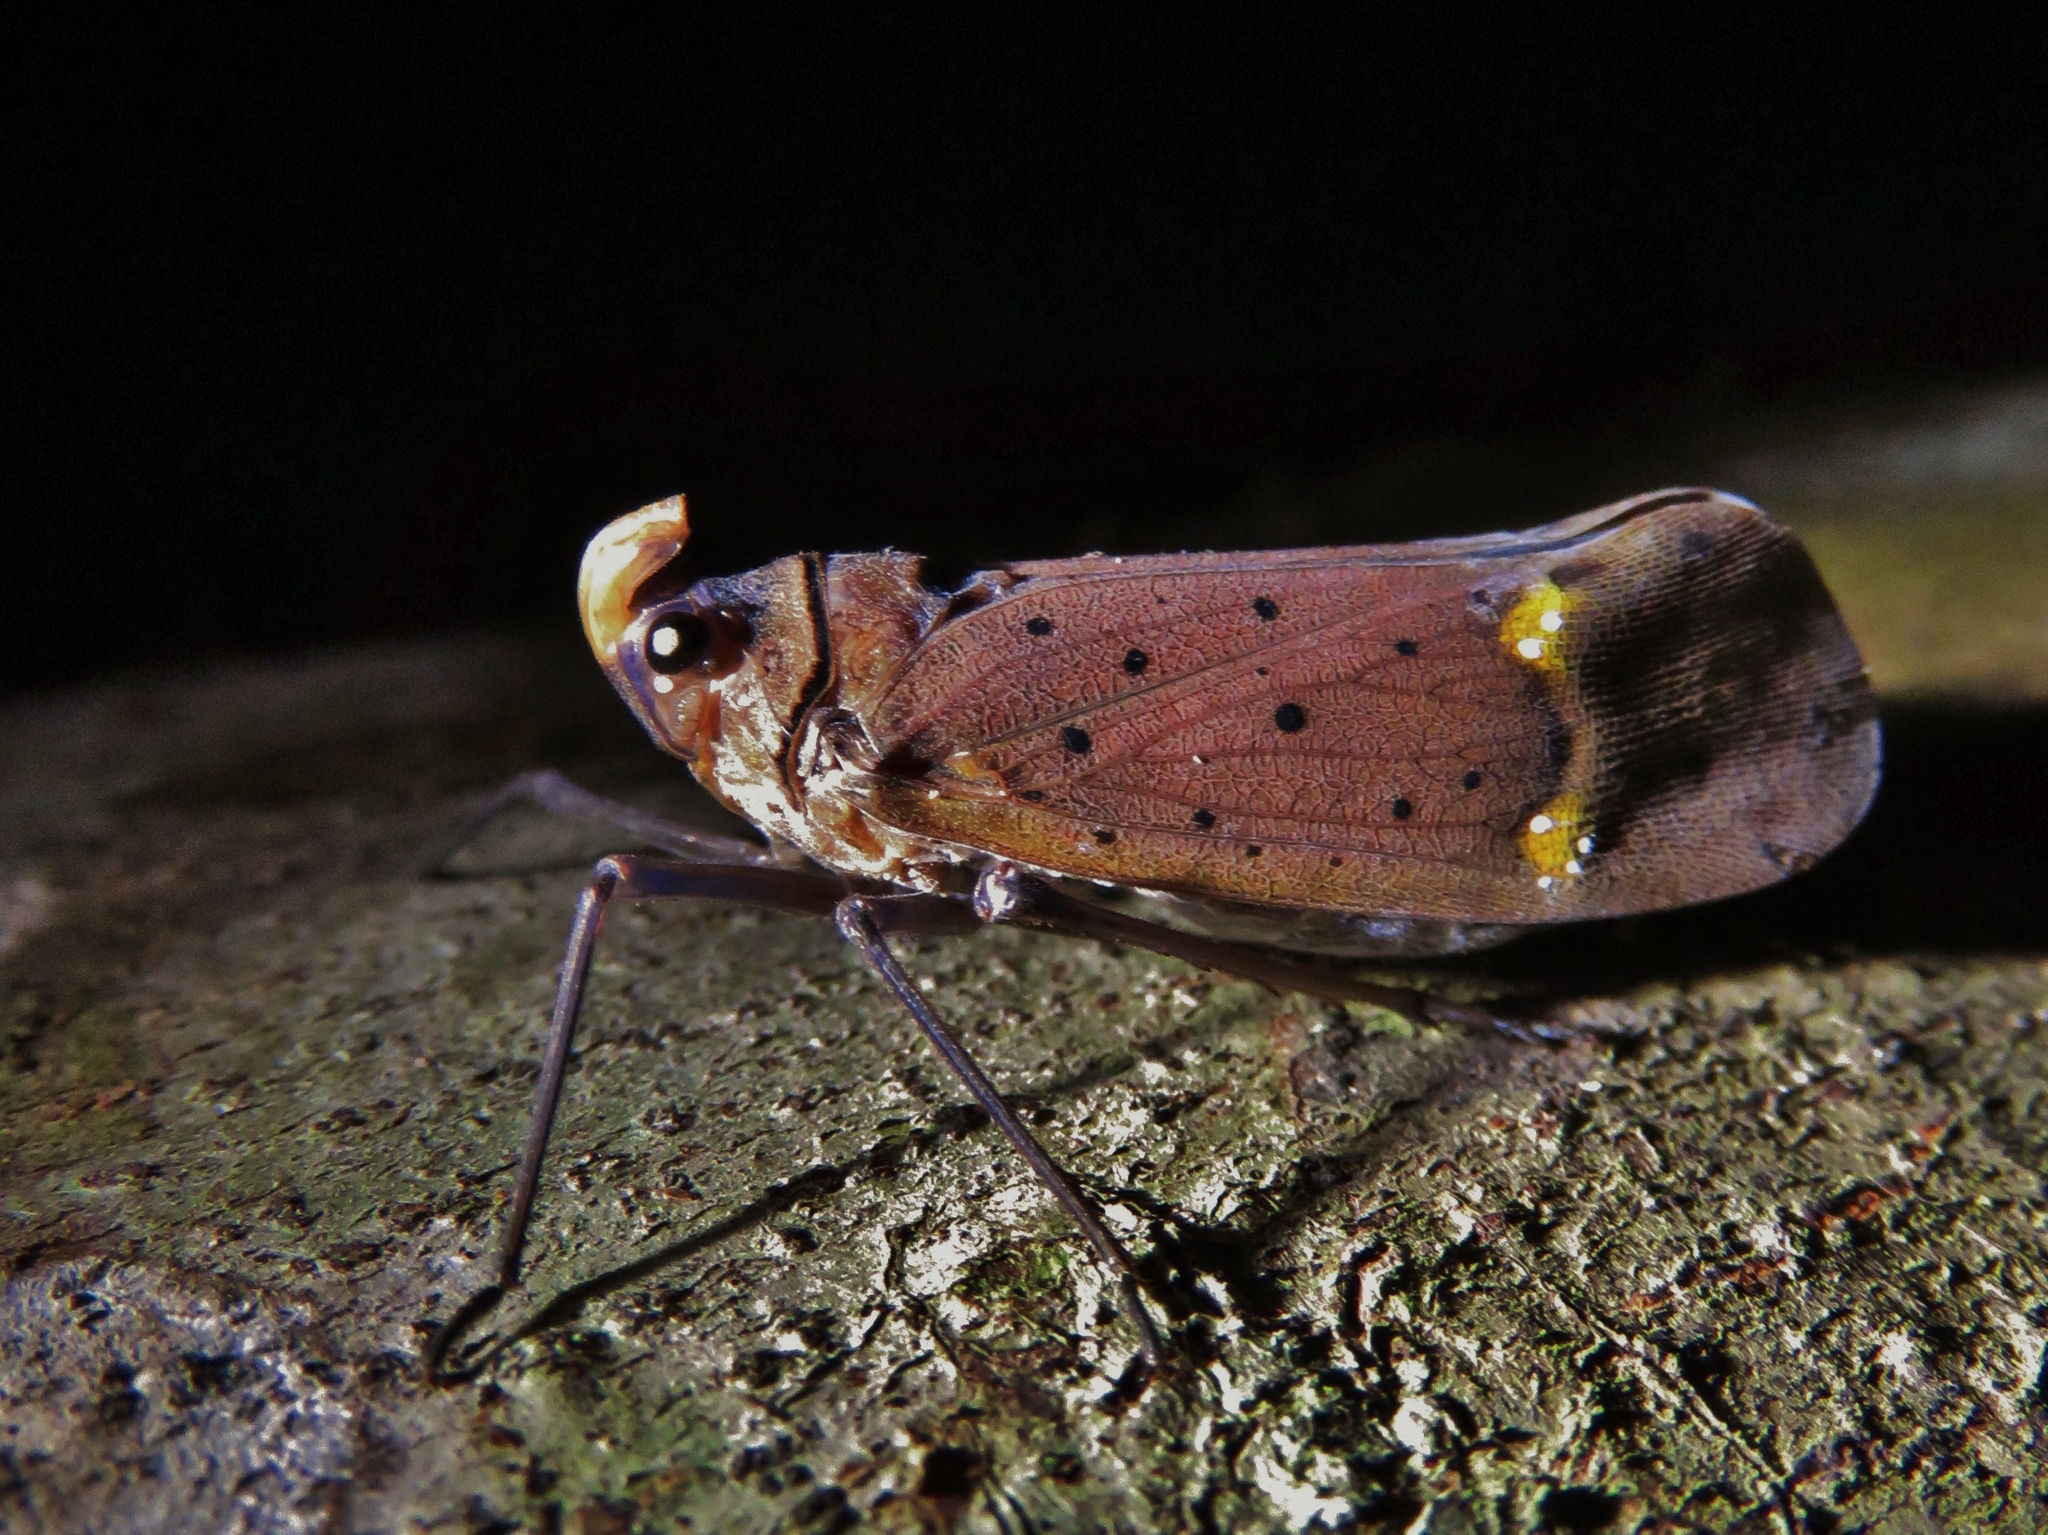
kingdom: Animalia
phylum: Arthropoda
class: Insecta
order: Hemiptera
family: Fulgoridae
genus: Enchophora
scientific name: Enchophora nigromaculata
